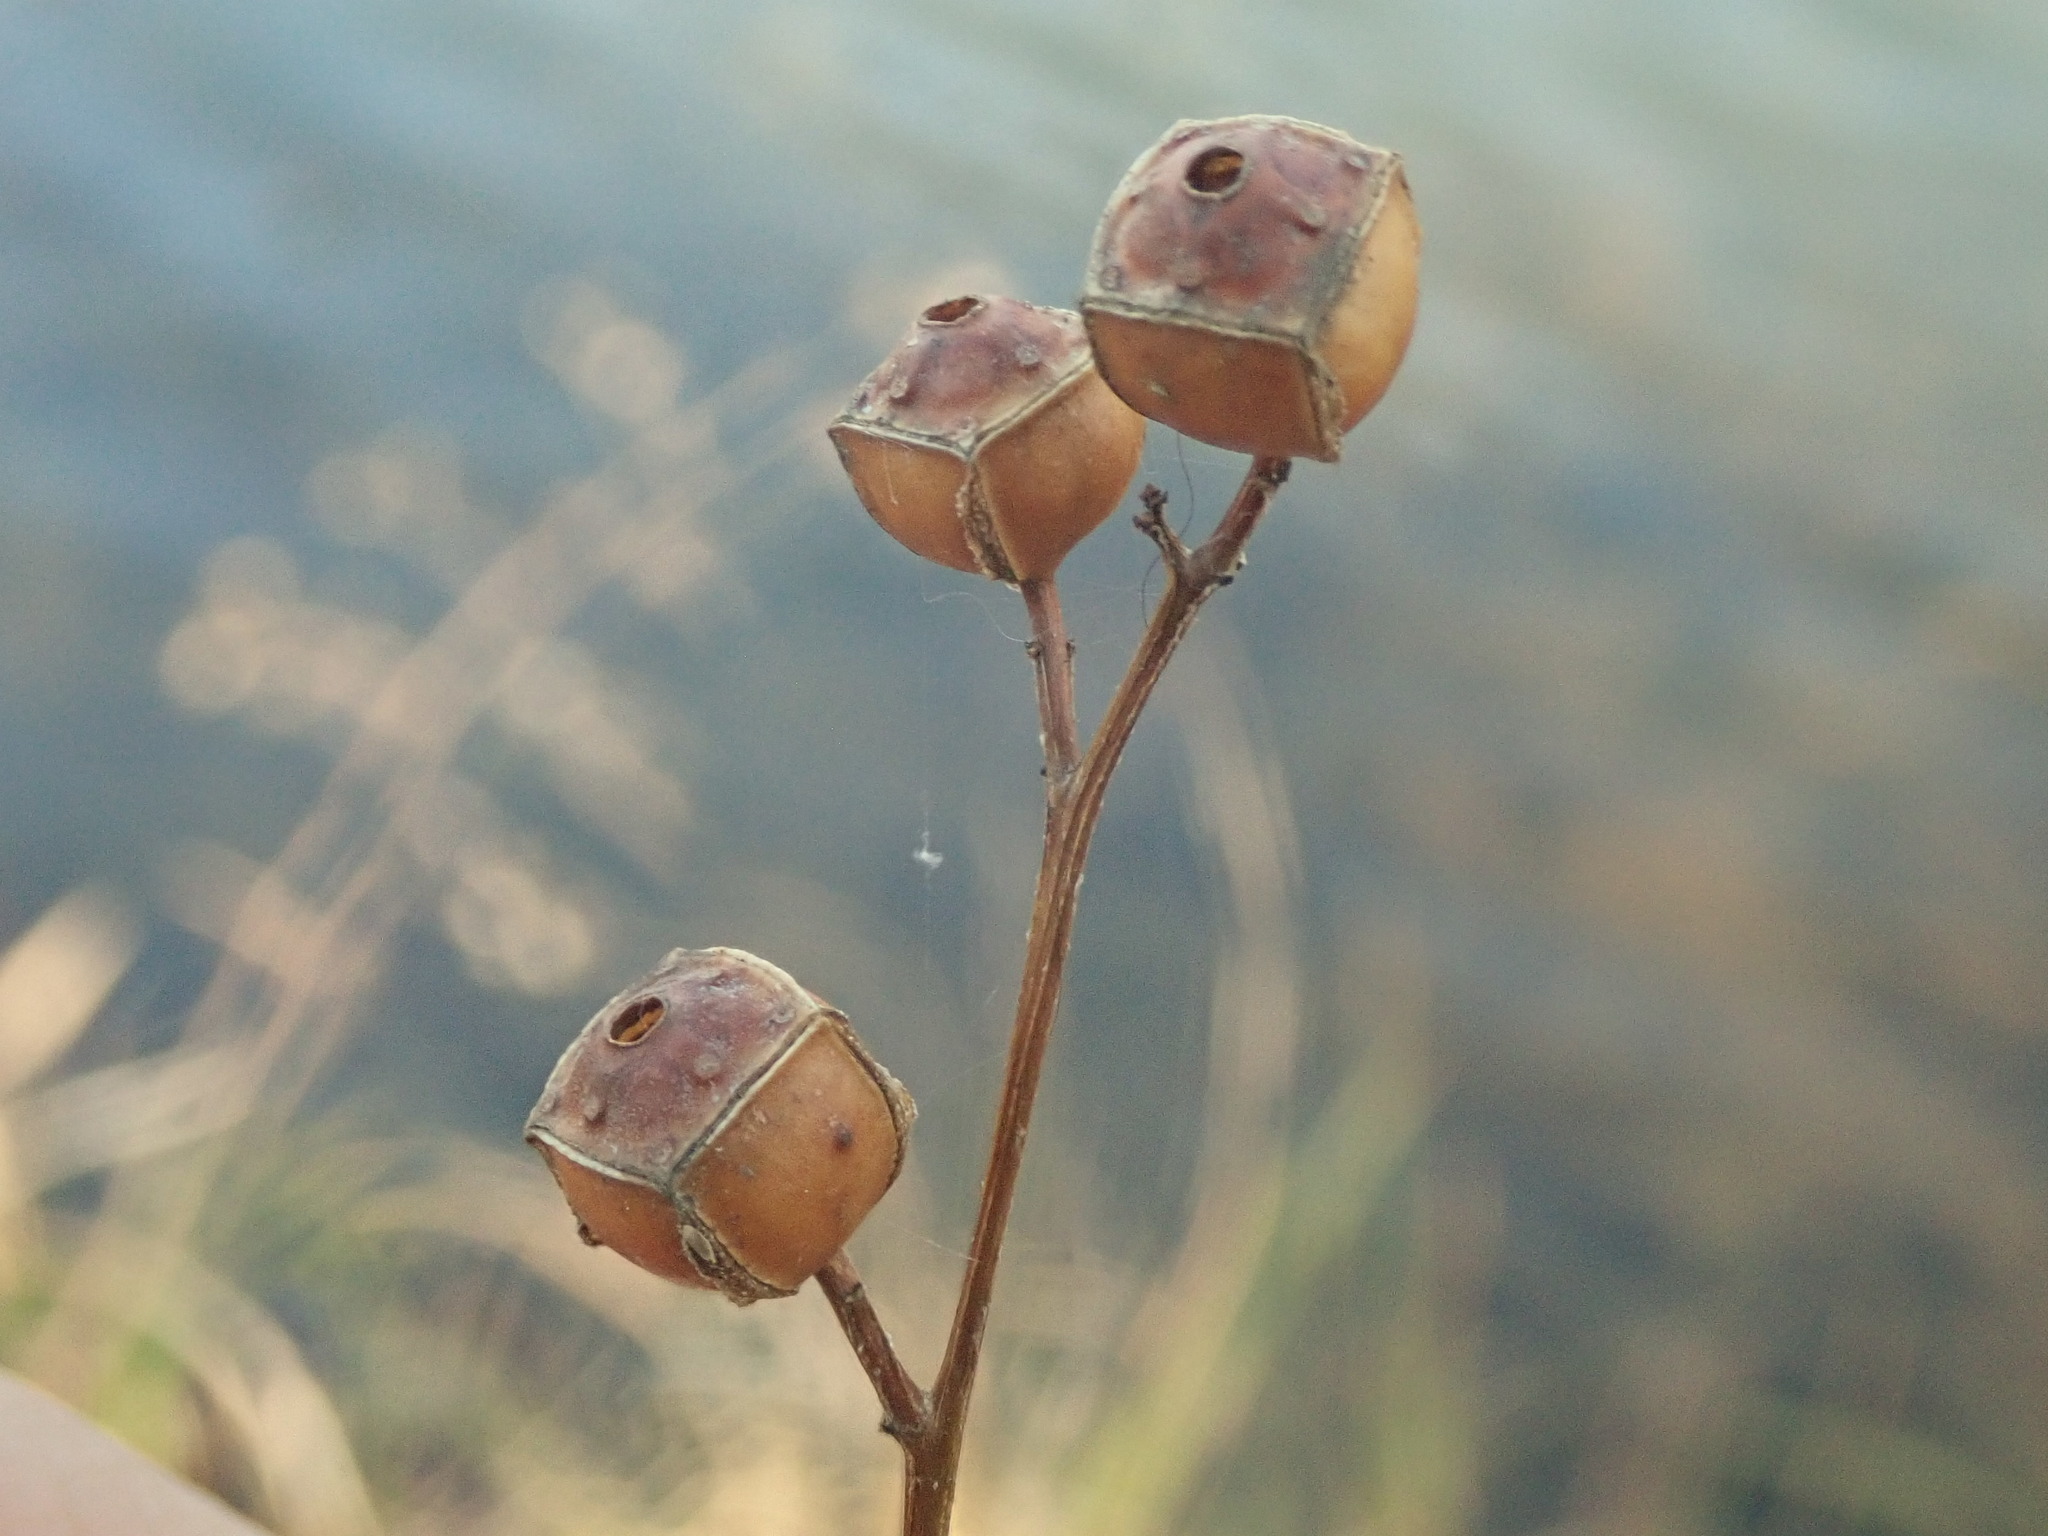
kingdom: Plantae
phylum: Tracheophyta
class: Magnoliopsida
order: Myrtales
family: Onagraceae
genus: Ludwigia
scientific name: Ludwigia alternifolia
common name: Rattlebox
